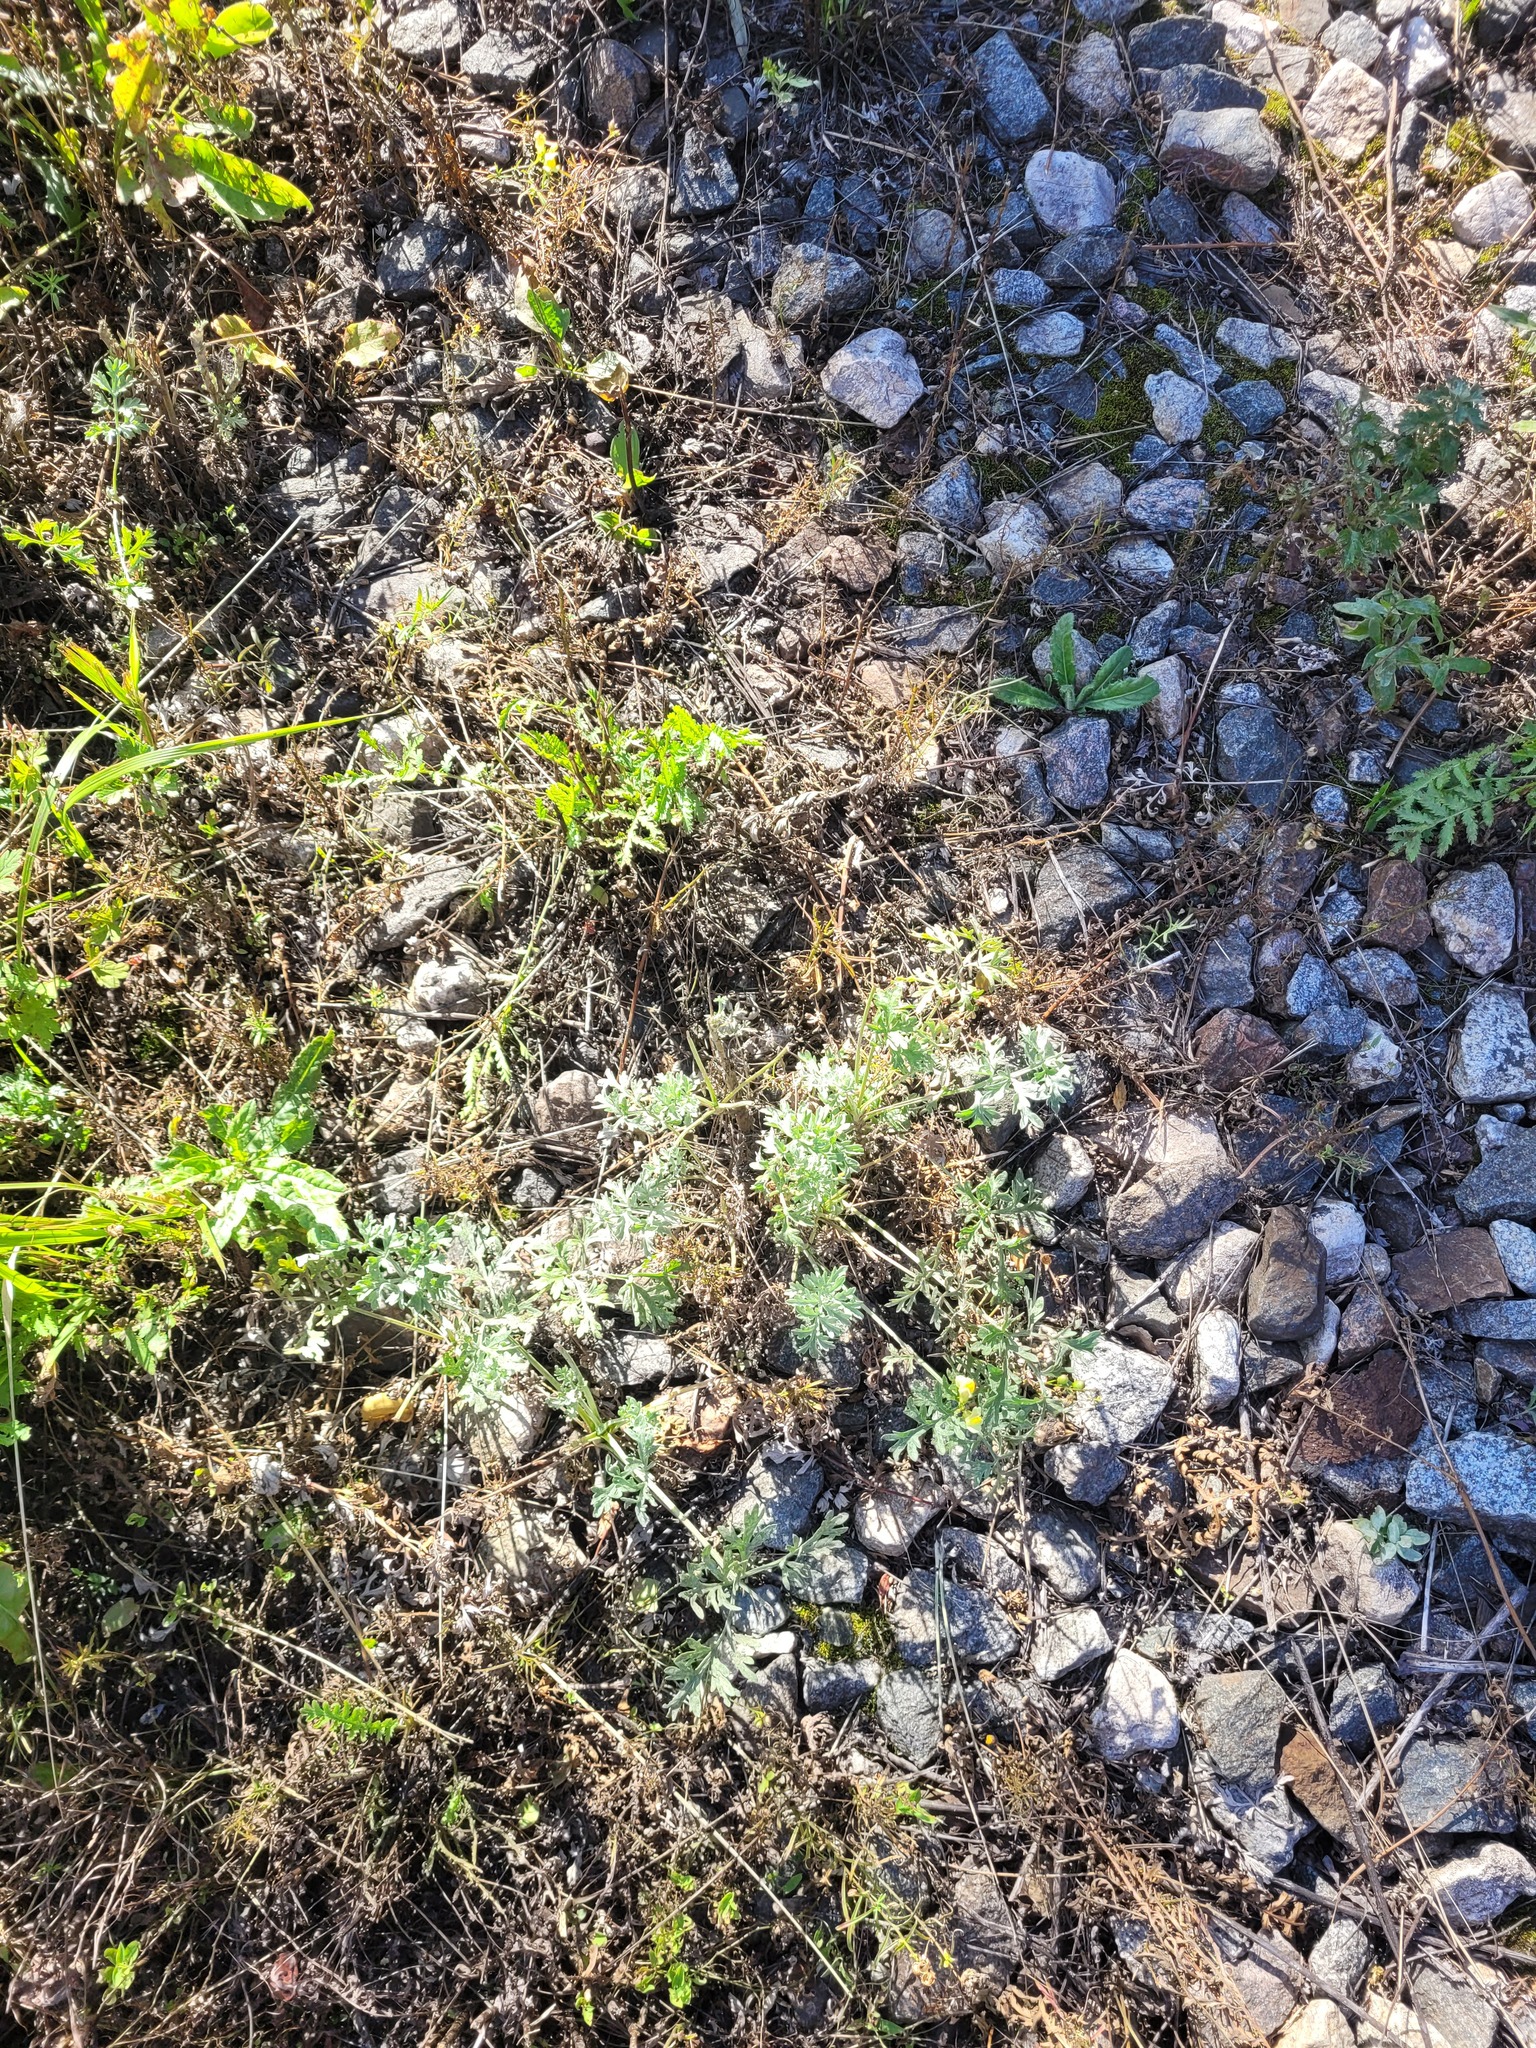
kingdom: Plantae
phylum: Tracheophyta
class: Magnoliopsida
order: Asterales
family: Asteraceae
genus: Artemisia
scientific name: Artemisia absinthium
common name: Wormwood
